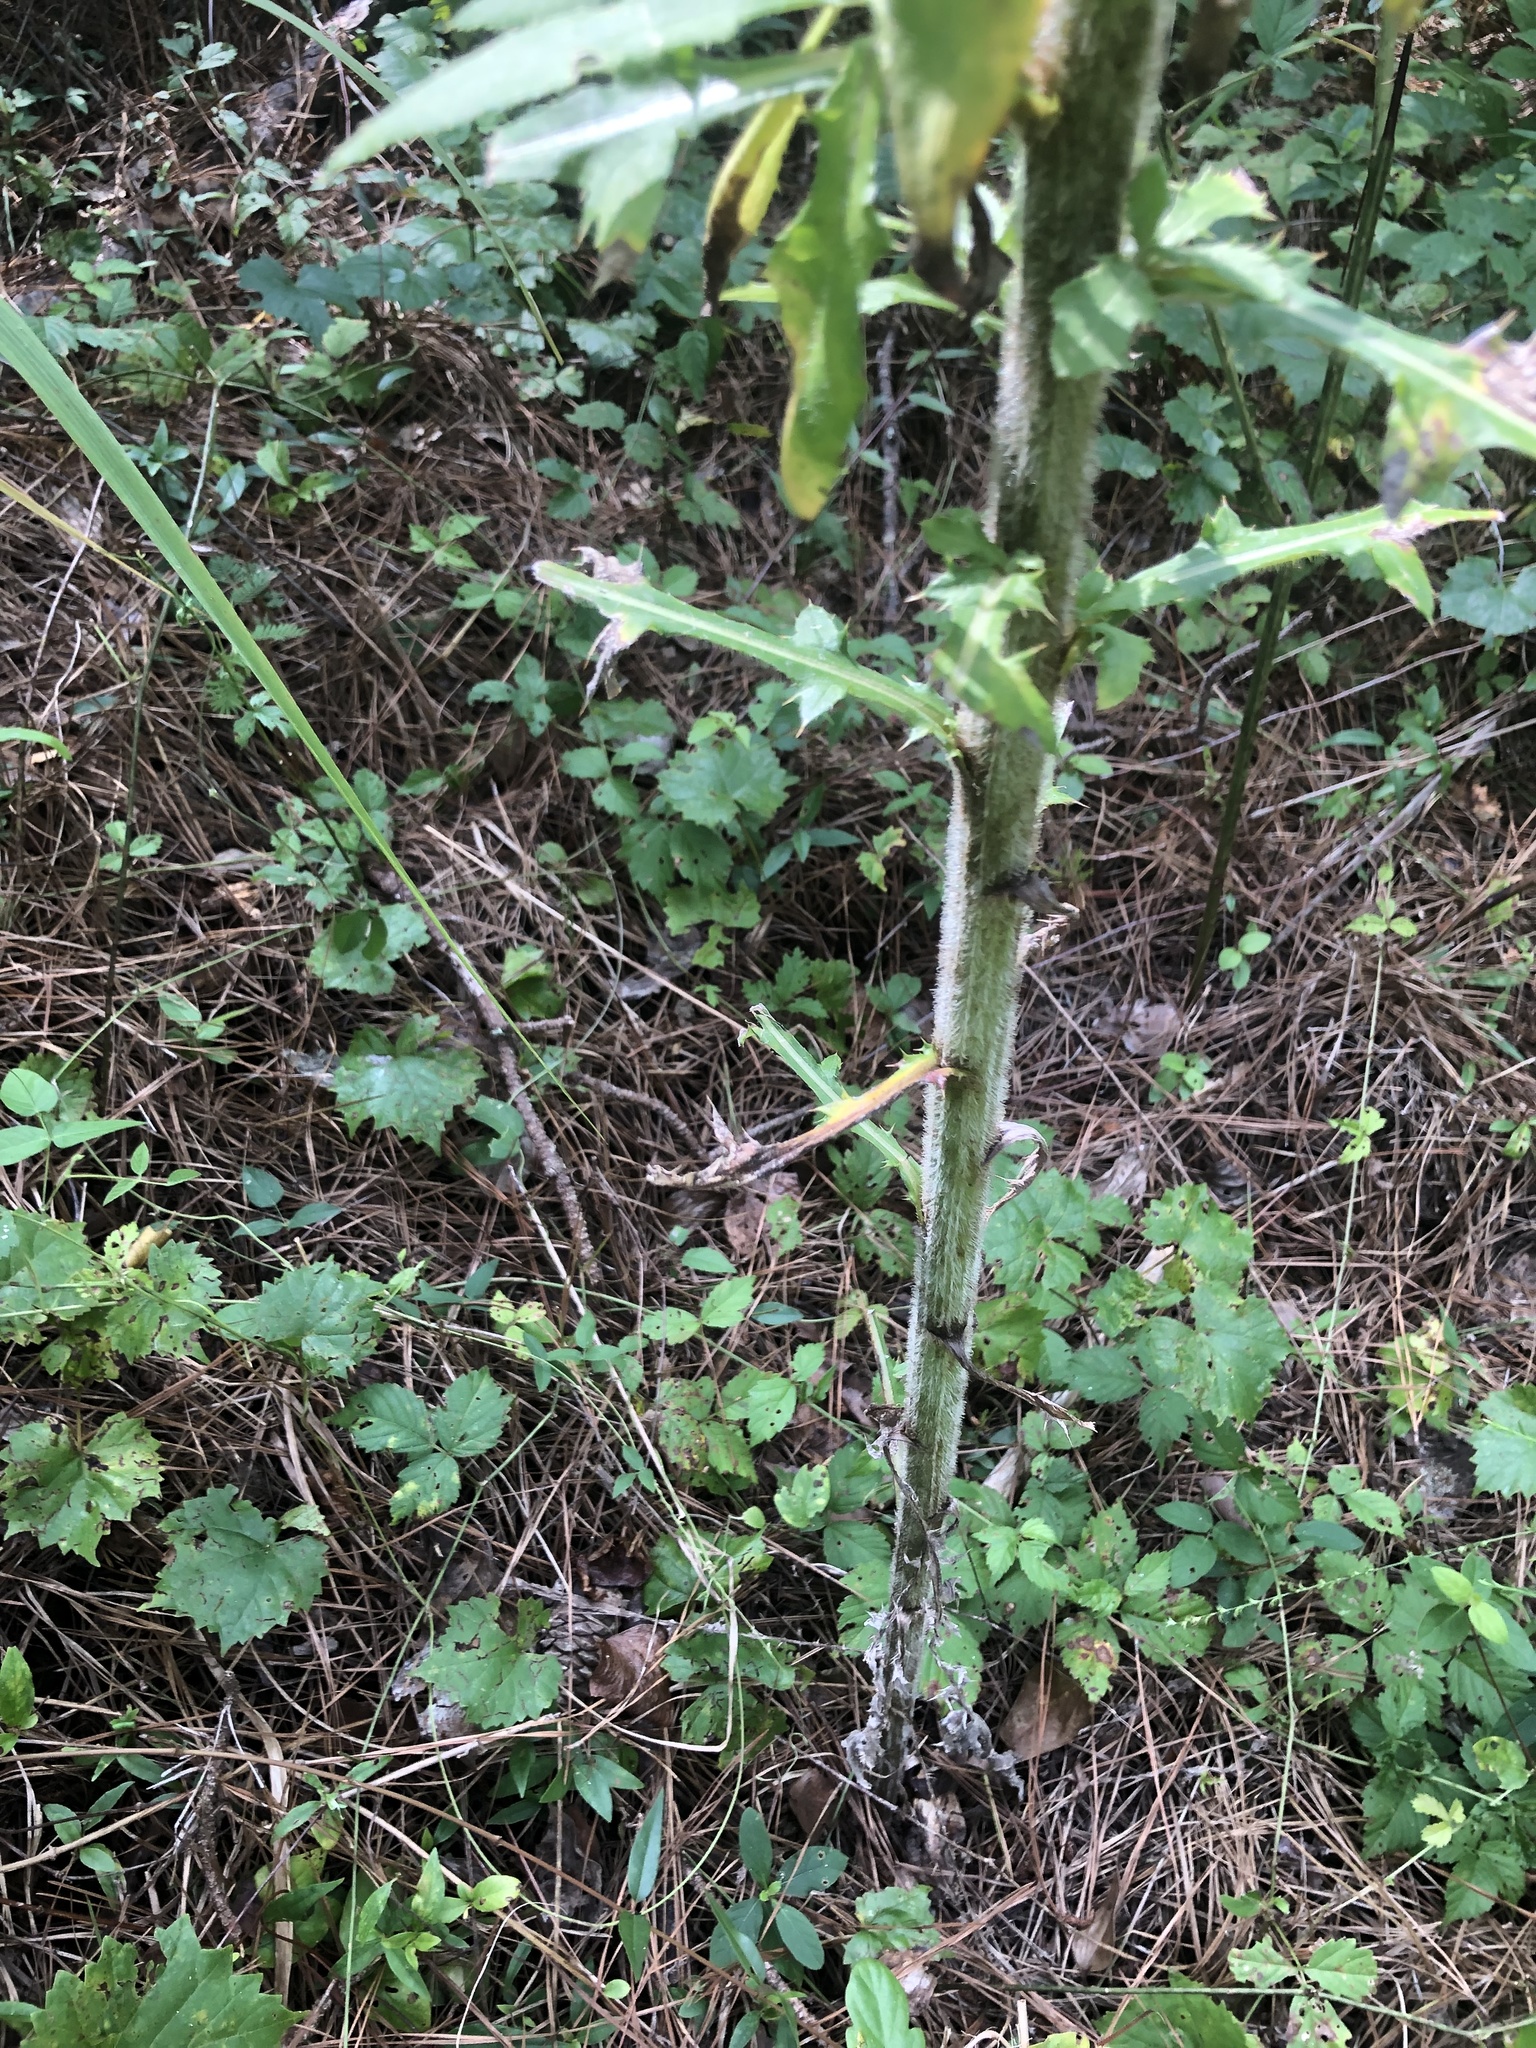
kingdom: Plantae
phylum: Tracheophyta
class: Magnoliopsida
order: Asterales
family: Asteraceae
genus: Cirsium
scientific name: Cirsium altissimum
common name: Roadside thistle
